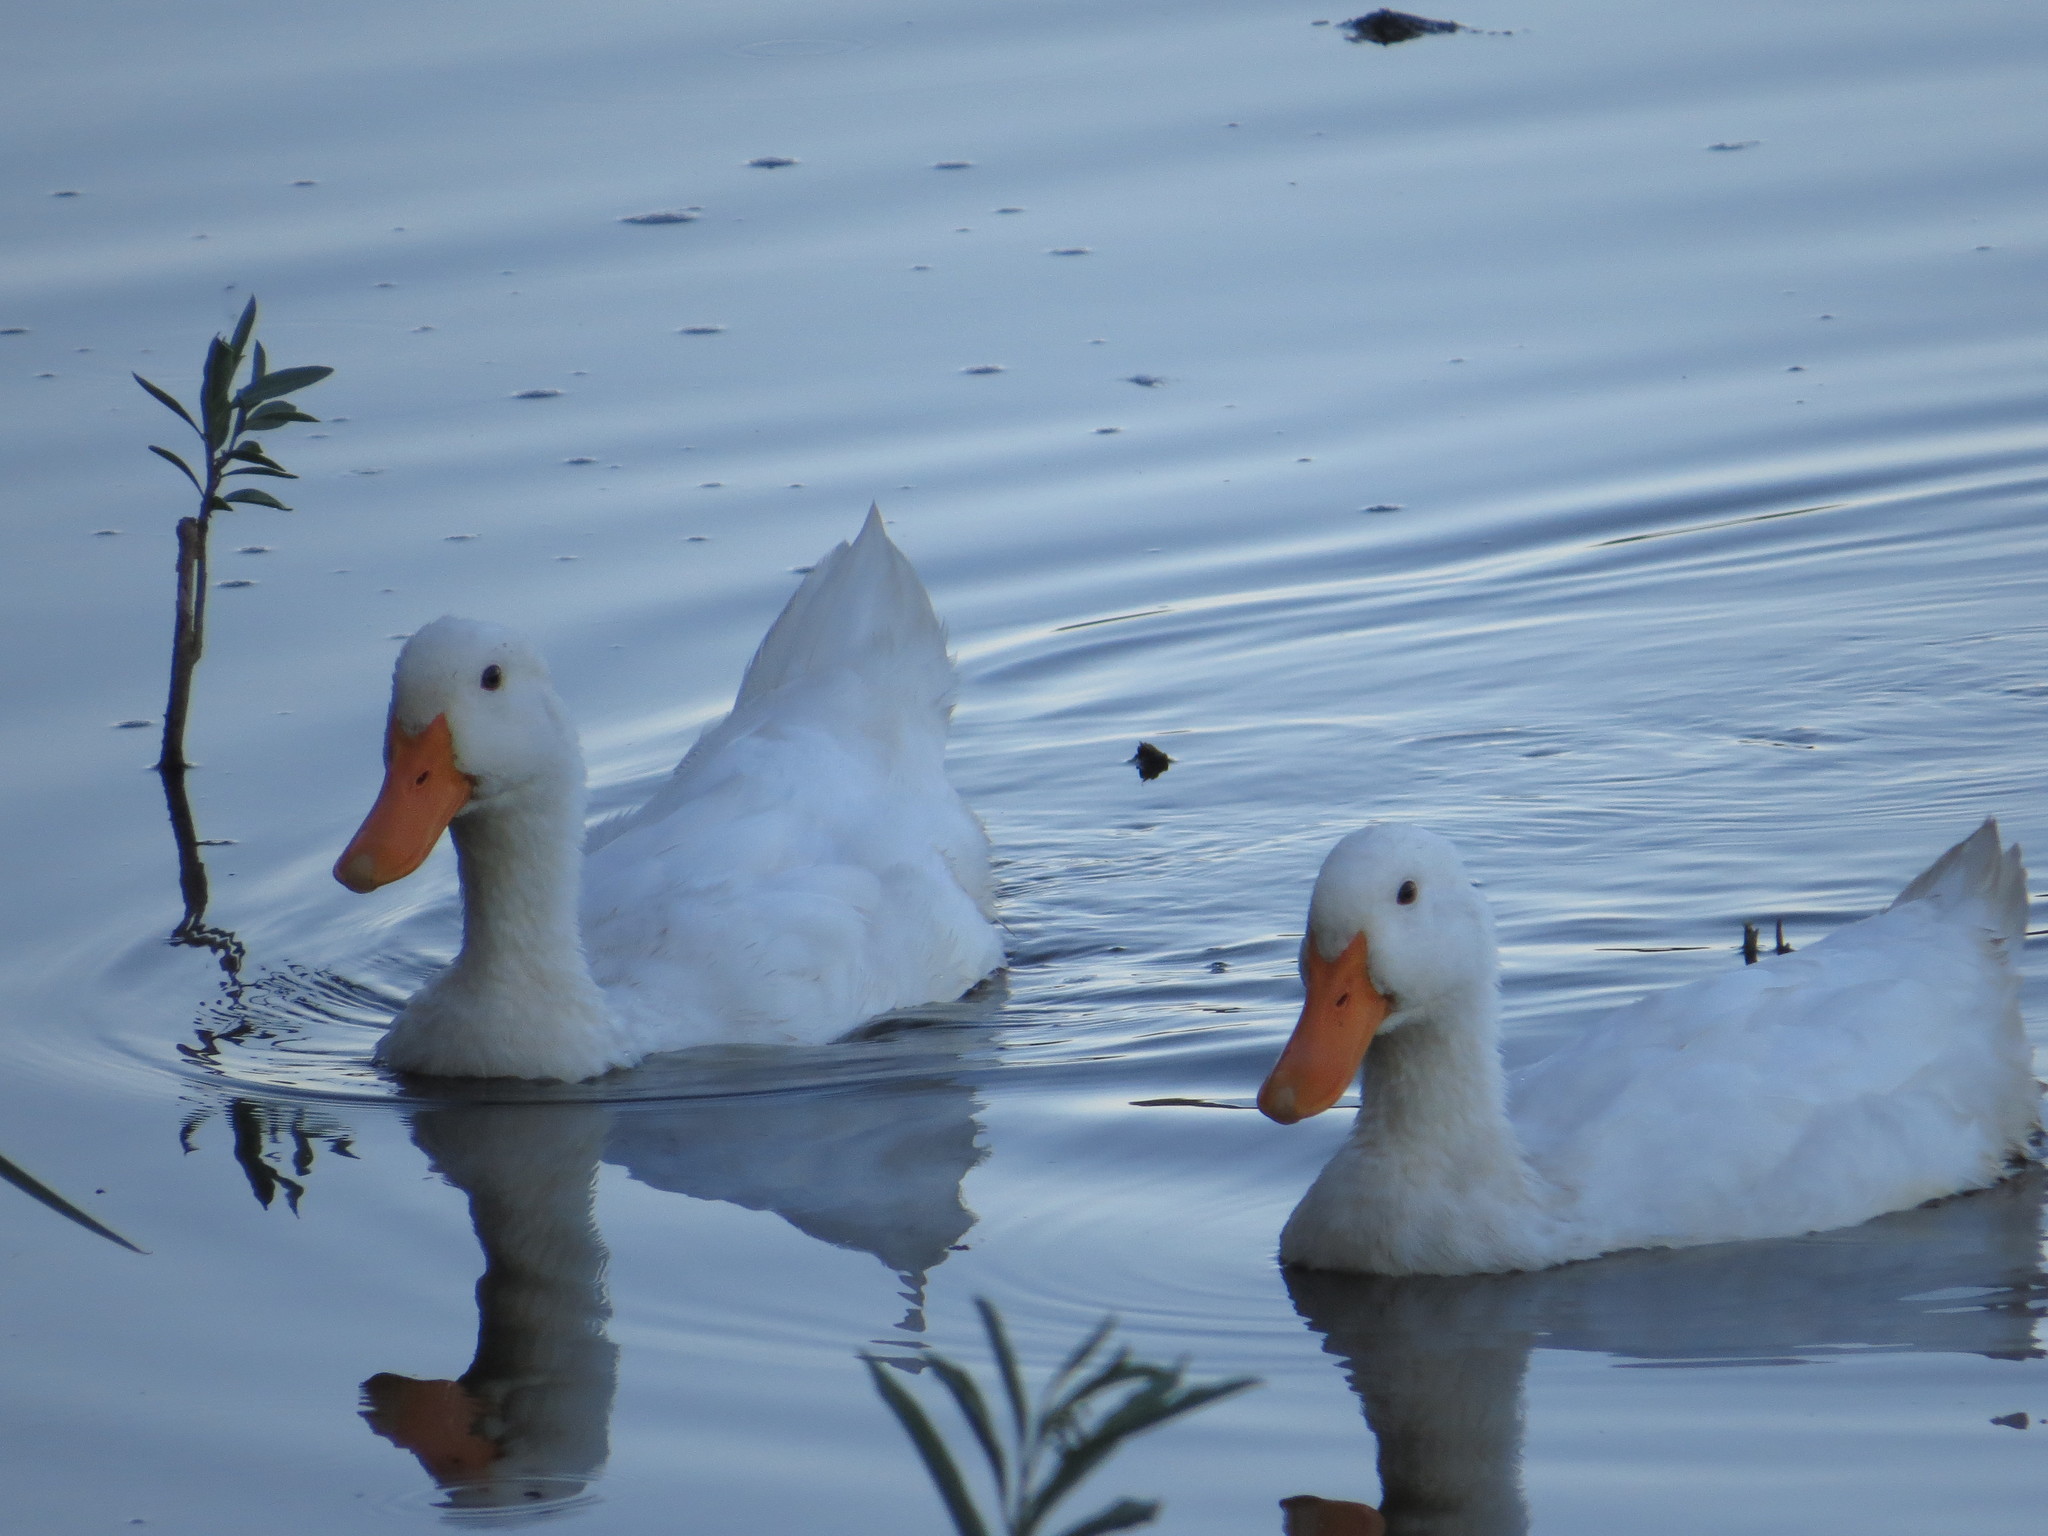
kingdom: Animalia
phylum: Chordata
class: Aves
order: Anseriformes
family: Anatidae
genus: Anas
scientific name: Anas platyrhynchos
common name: Mallard
